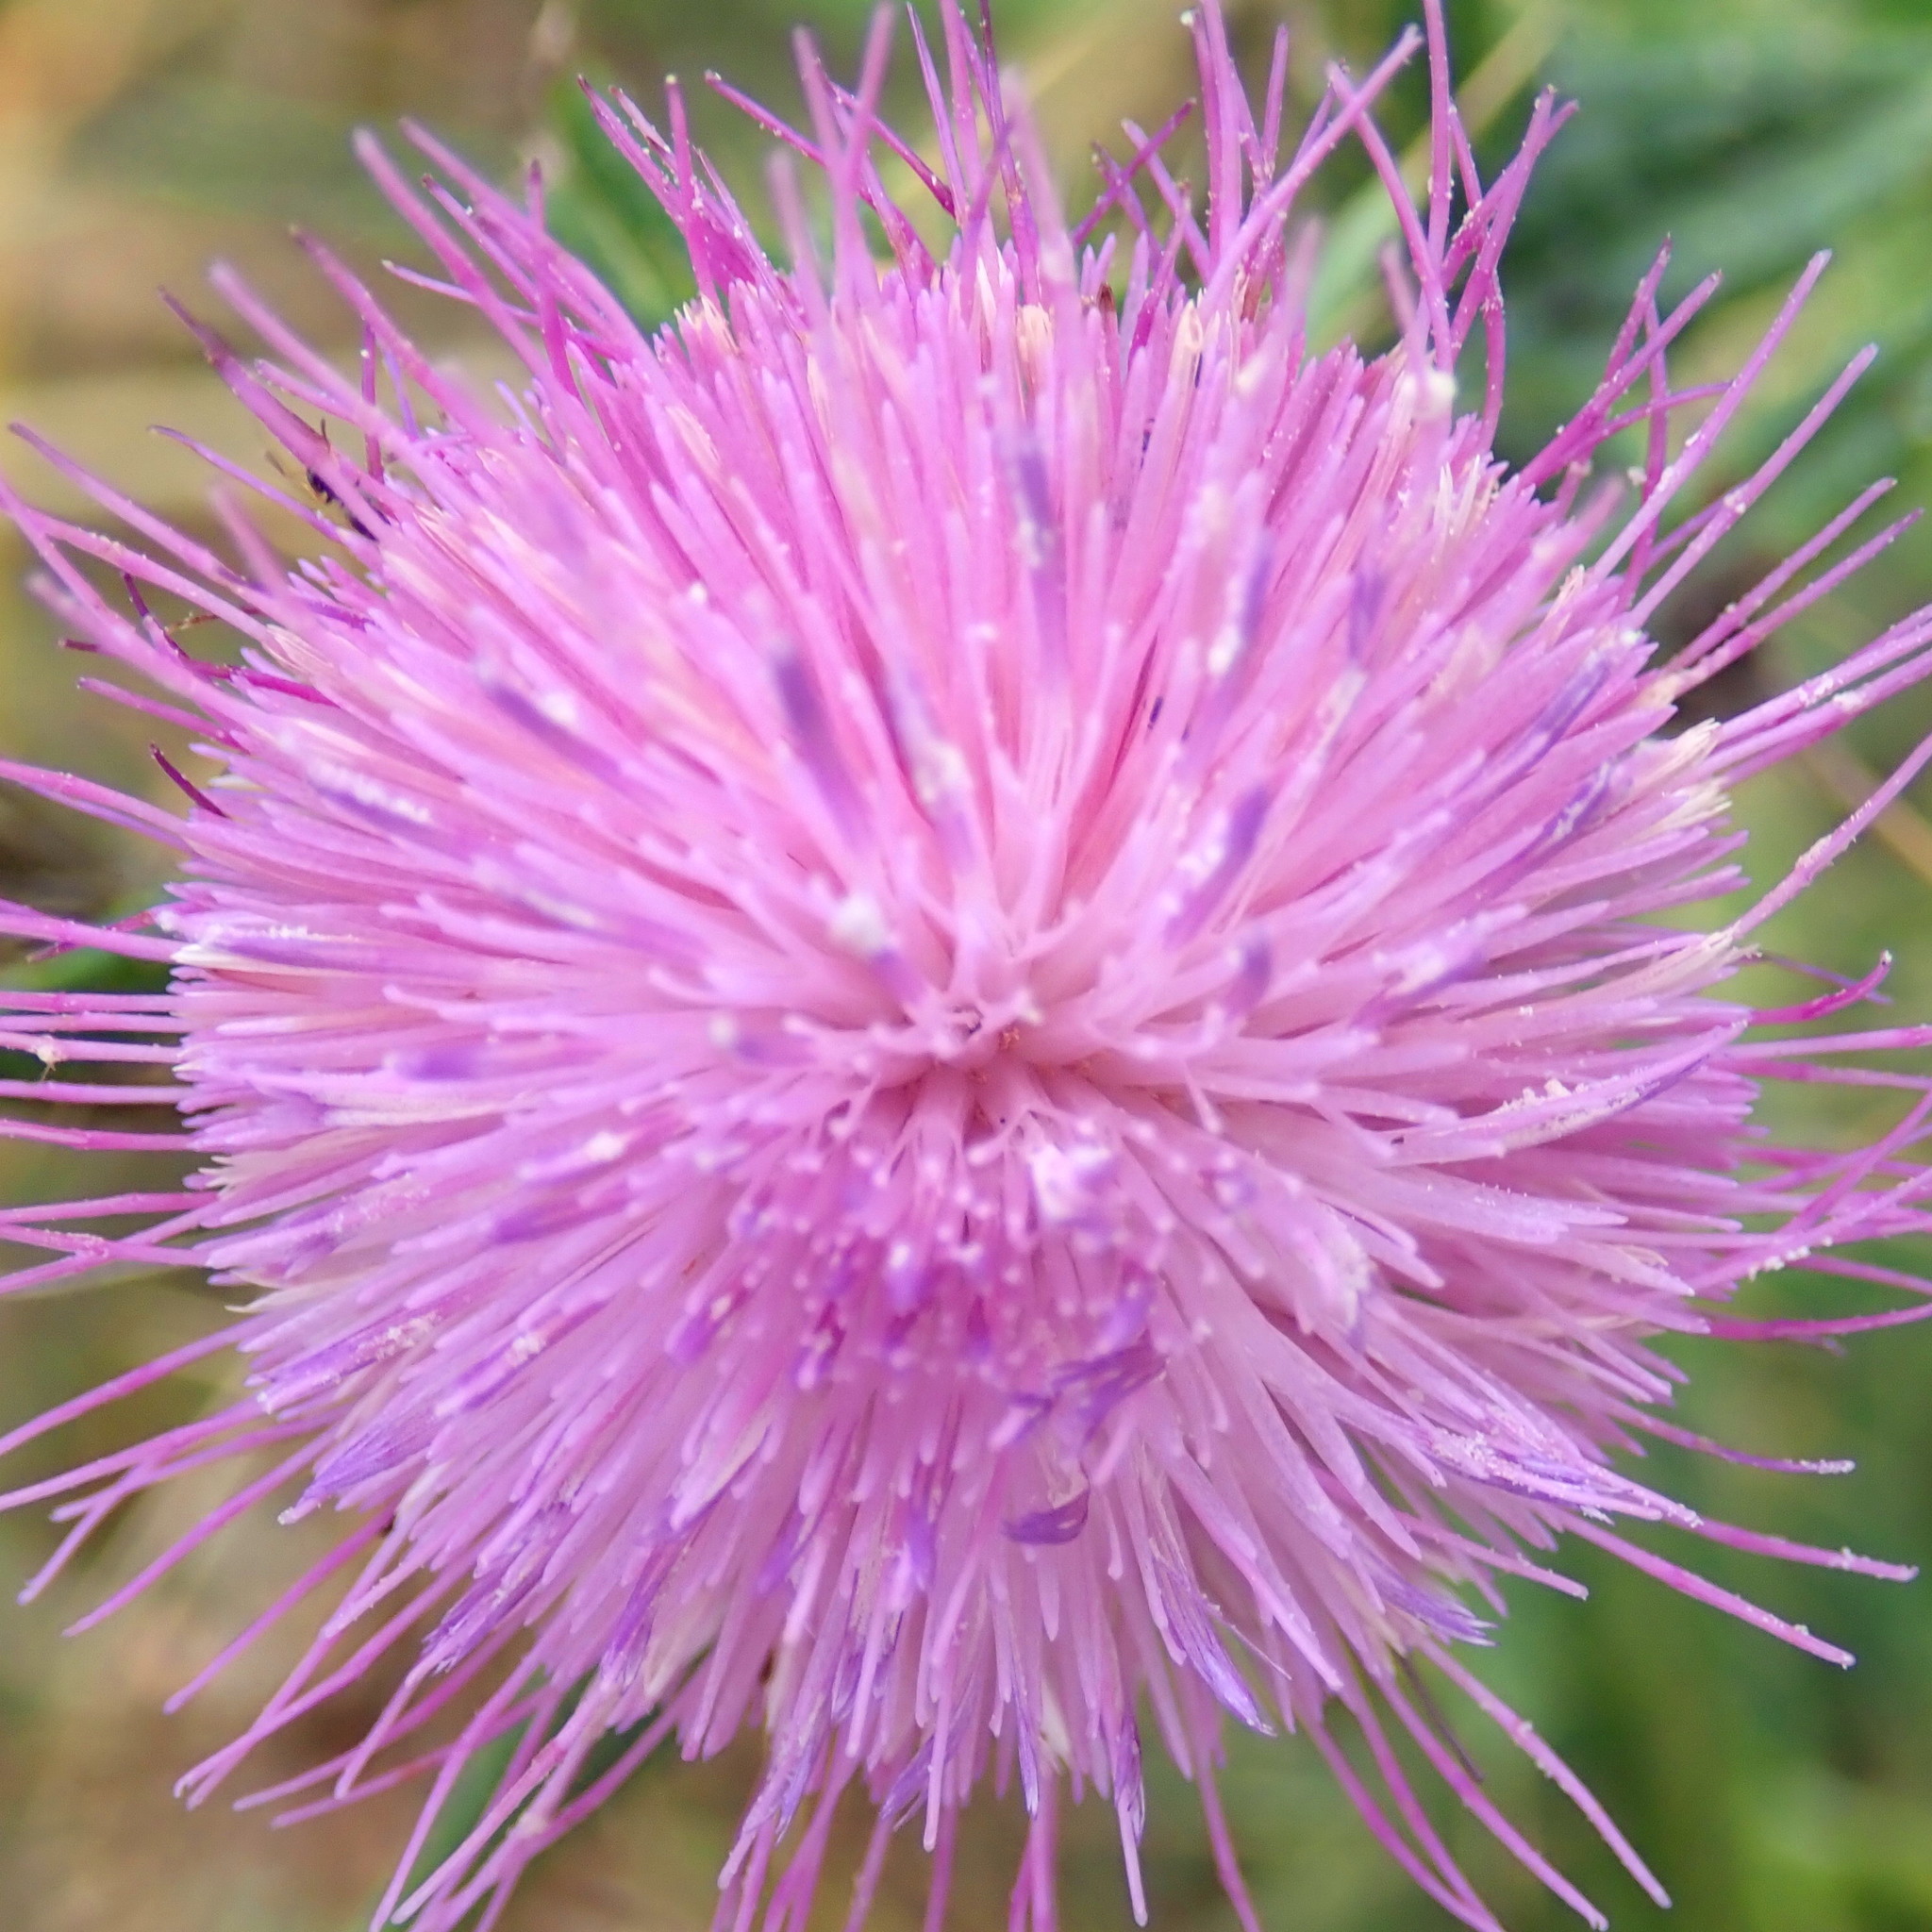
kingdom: Plantae
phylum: Tracheophyta
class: Magnoliopsida
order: Asterales
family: Asteraceae
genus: Cirsium
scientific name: Cirsium vulgare
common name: Bull thistle
